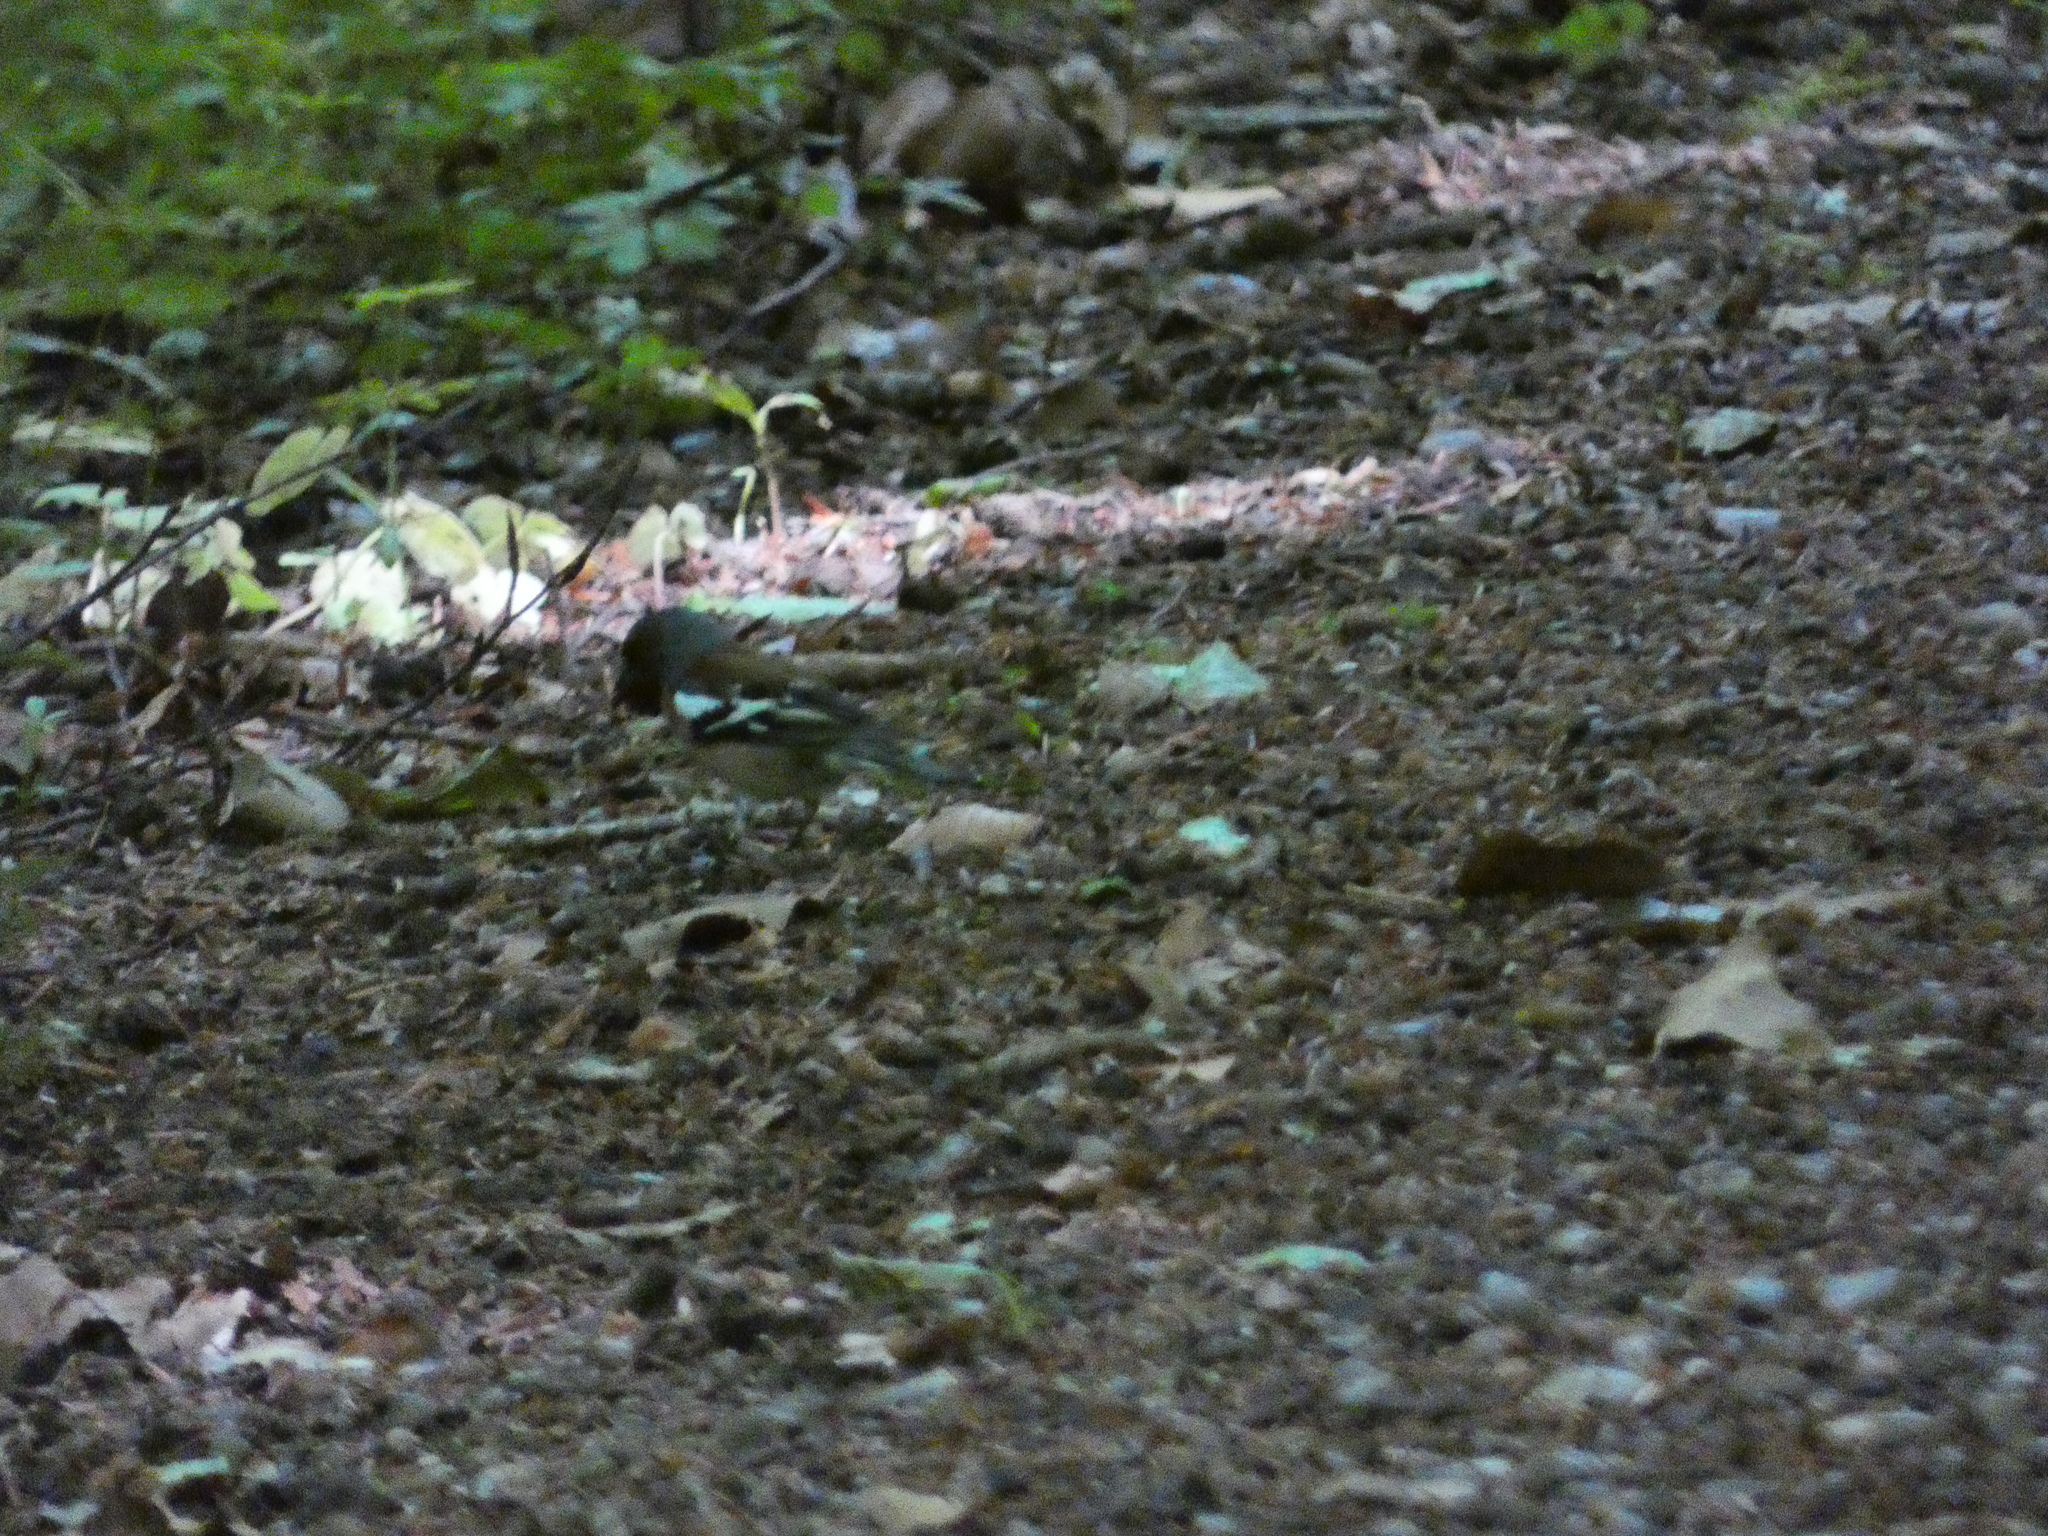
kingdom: Animalia
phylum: Chordata
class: Aves
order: Passeriformes
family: Fringillidae
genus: Fringilla
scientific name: Fringilla coelebs
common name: Common chaffinch
